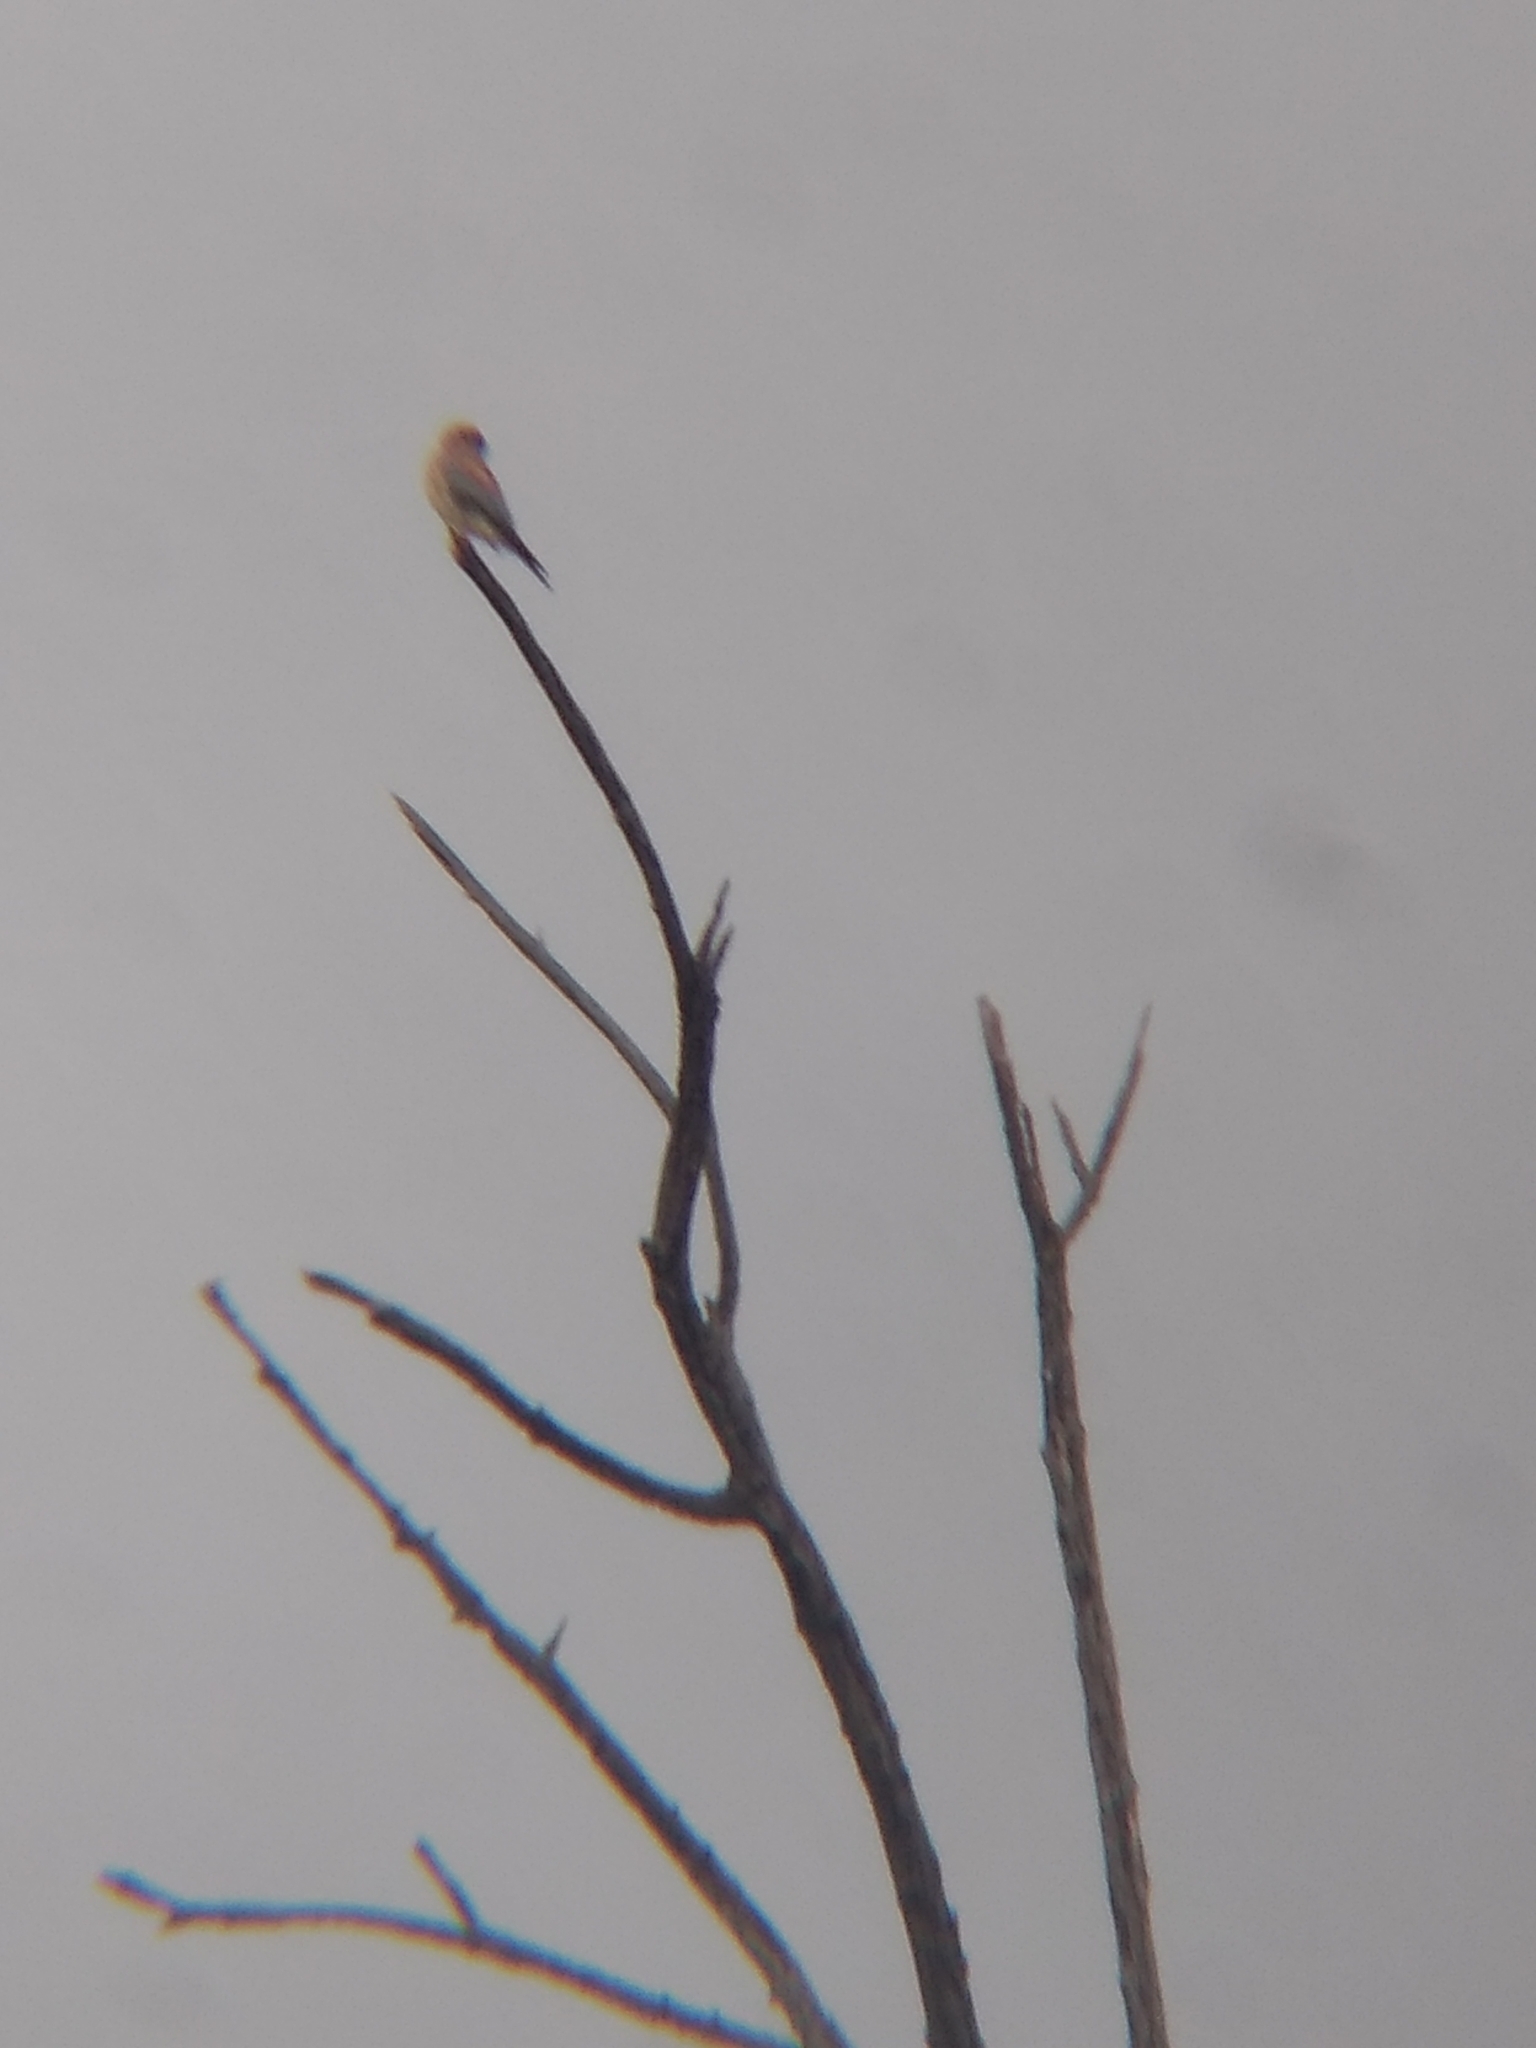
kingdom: Animalia
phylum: Chordata
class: Aves
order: Falconiformes
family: Falconidae
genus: Falco
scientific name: Falco sparverius
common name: American kestrel
